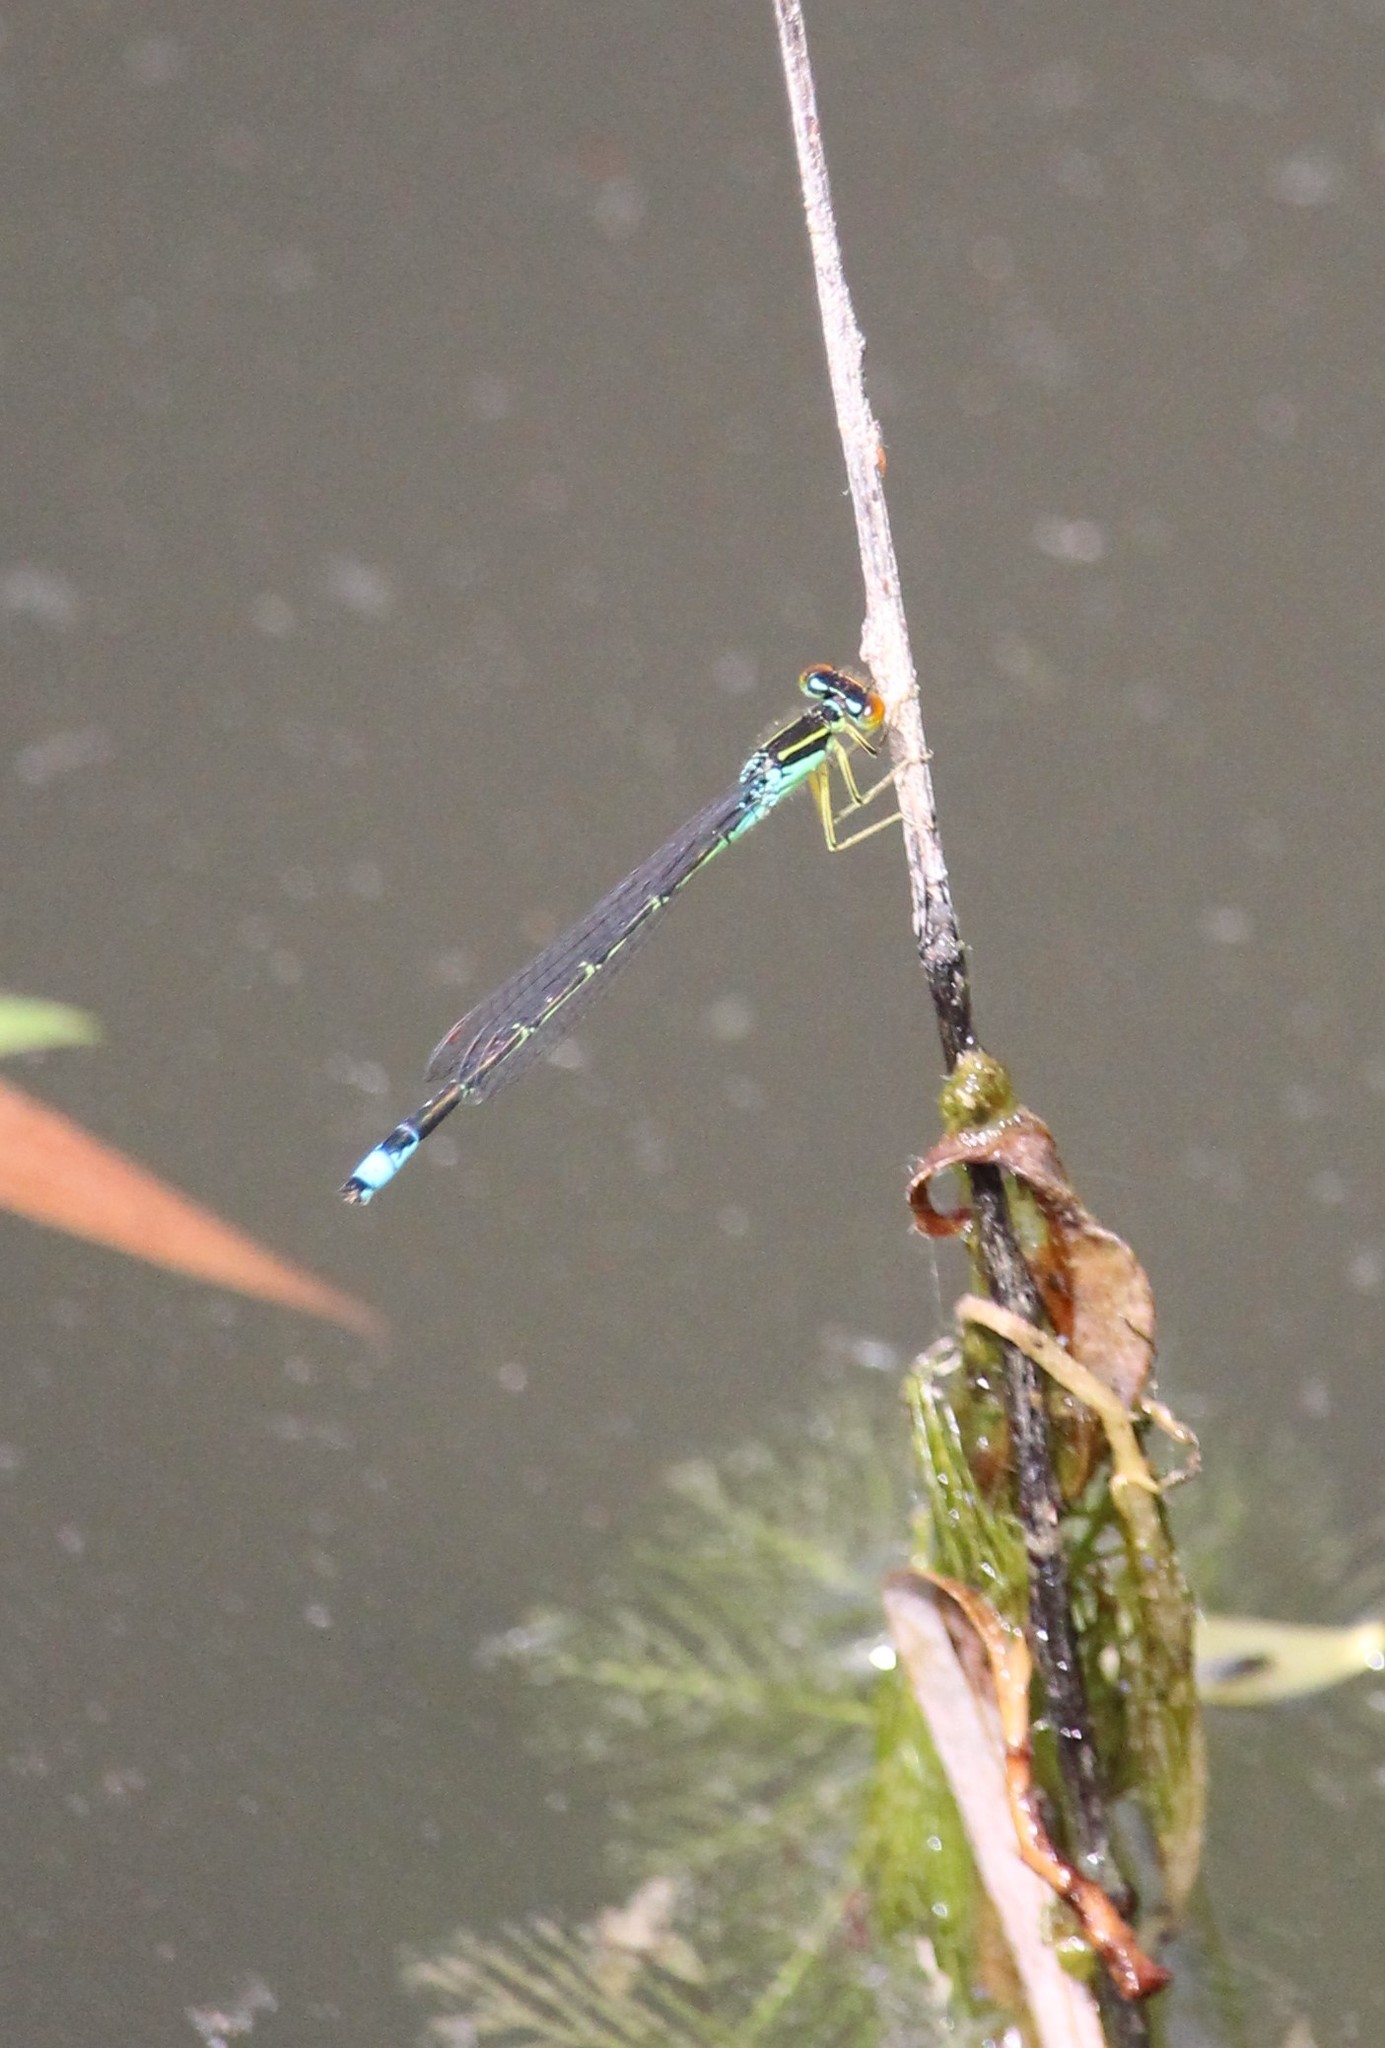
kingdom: Animalia
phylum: Arthropoda
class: Insecta
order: Odonata
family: Coenagrionidae
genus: Enallagma
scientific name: Enallagma antennatum
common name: Rainbow bluet
